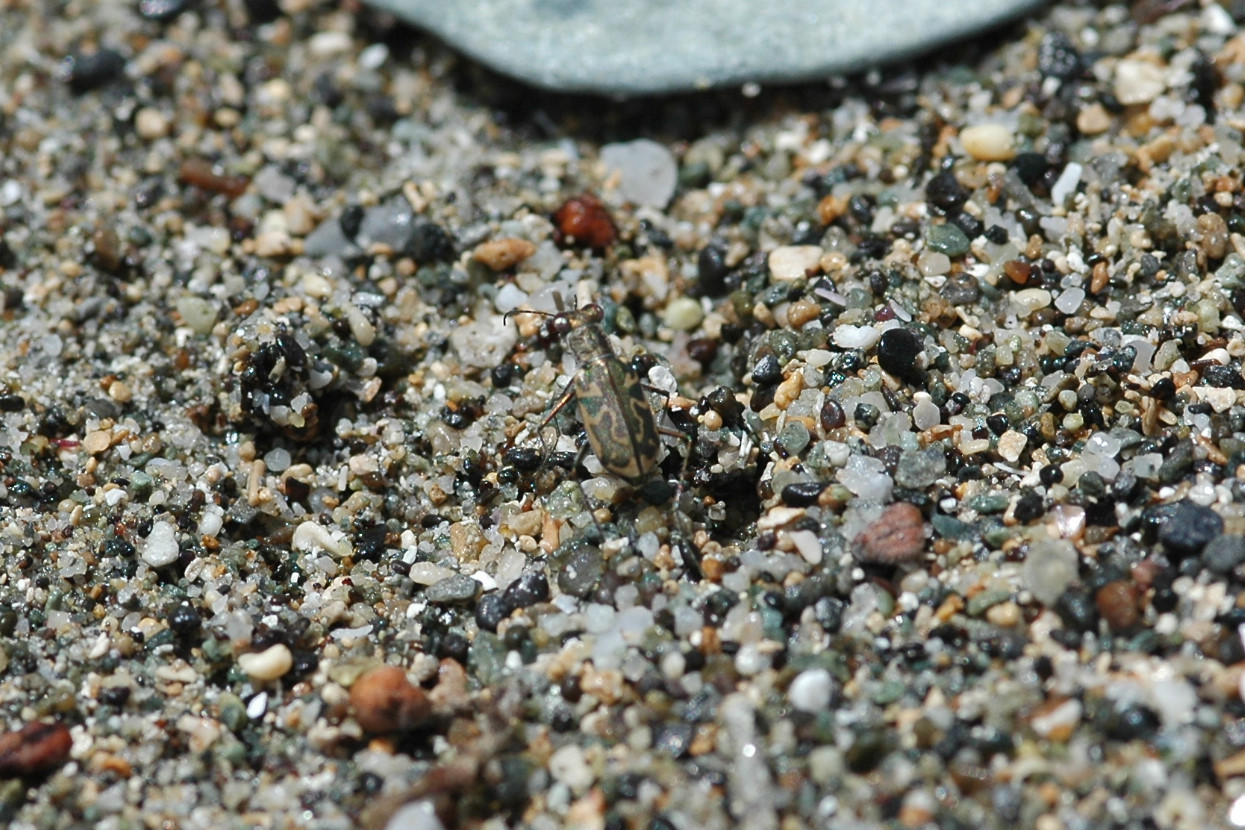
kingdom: Animalia
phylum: Arthropoda
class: Insecta
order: Coleoptera
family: Carabidae
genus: Cylindera
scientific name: Cylindera suturalis
